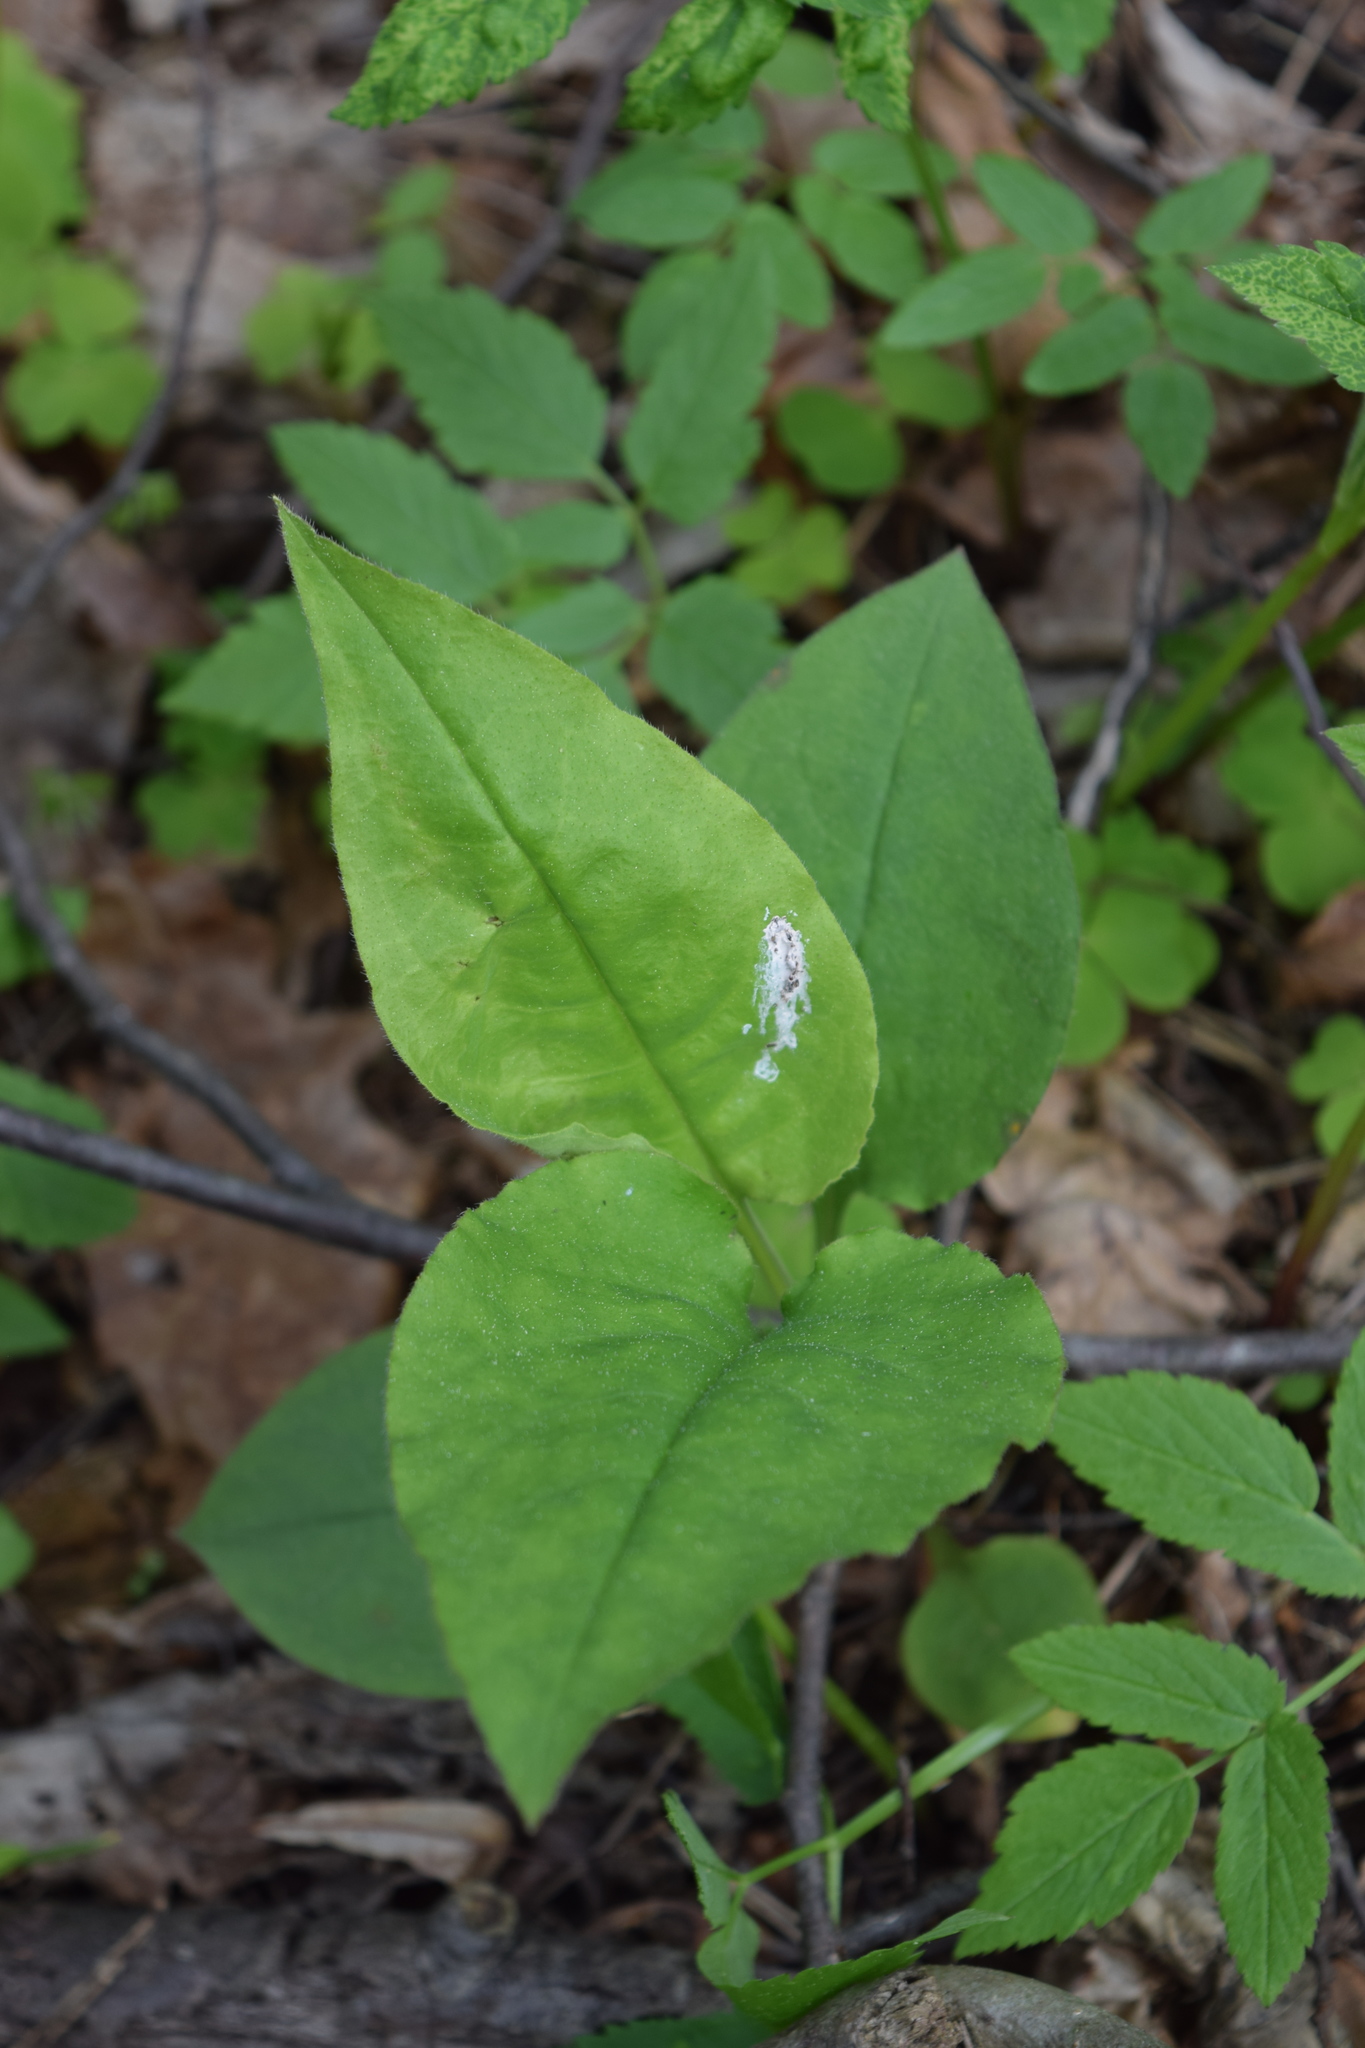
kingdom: Plantae
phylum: Tracheophyta
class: Magnoliopsida
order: Boraginales
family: Boraginaceae
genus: Pulmonaria
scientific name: Pulmonaria obscura
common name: Suffolk lungwort
